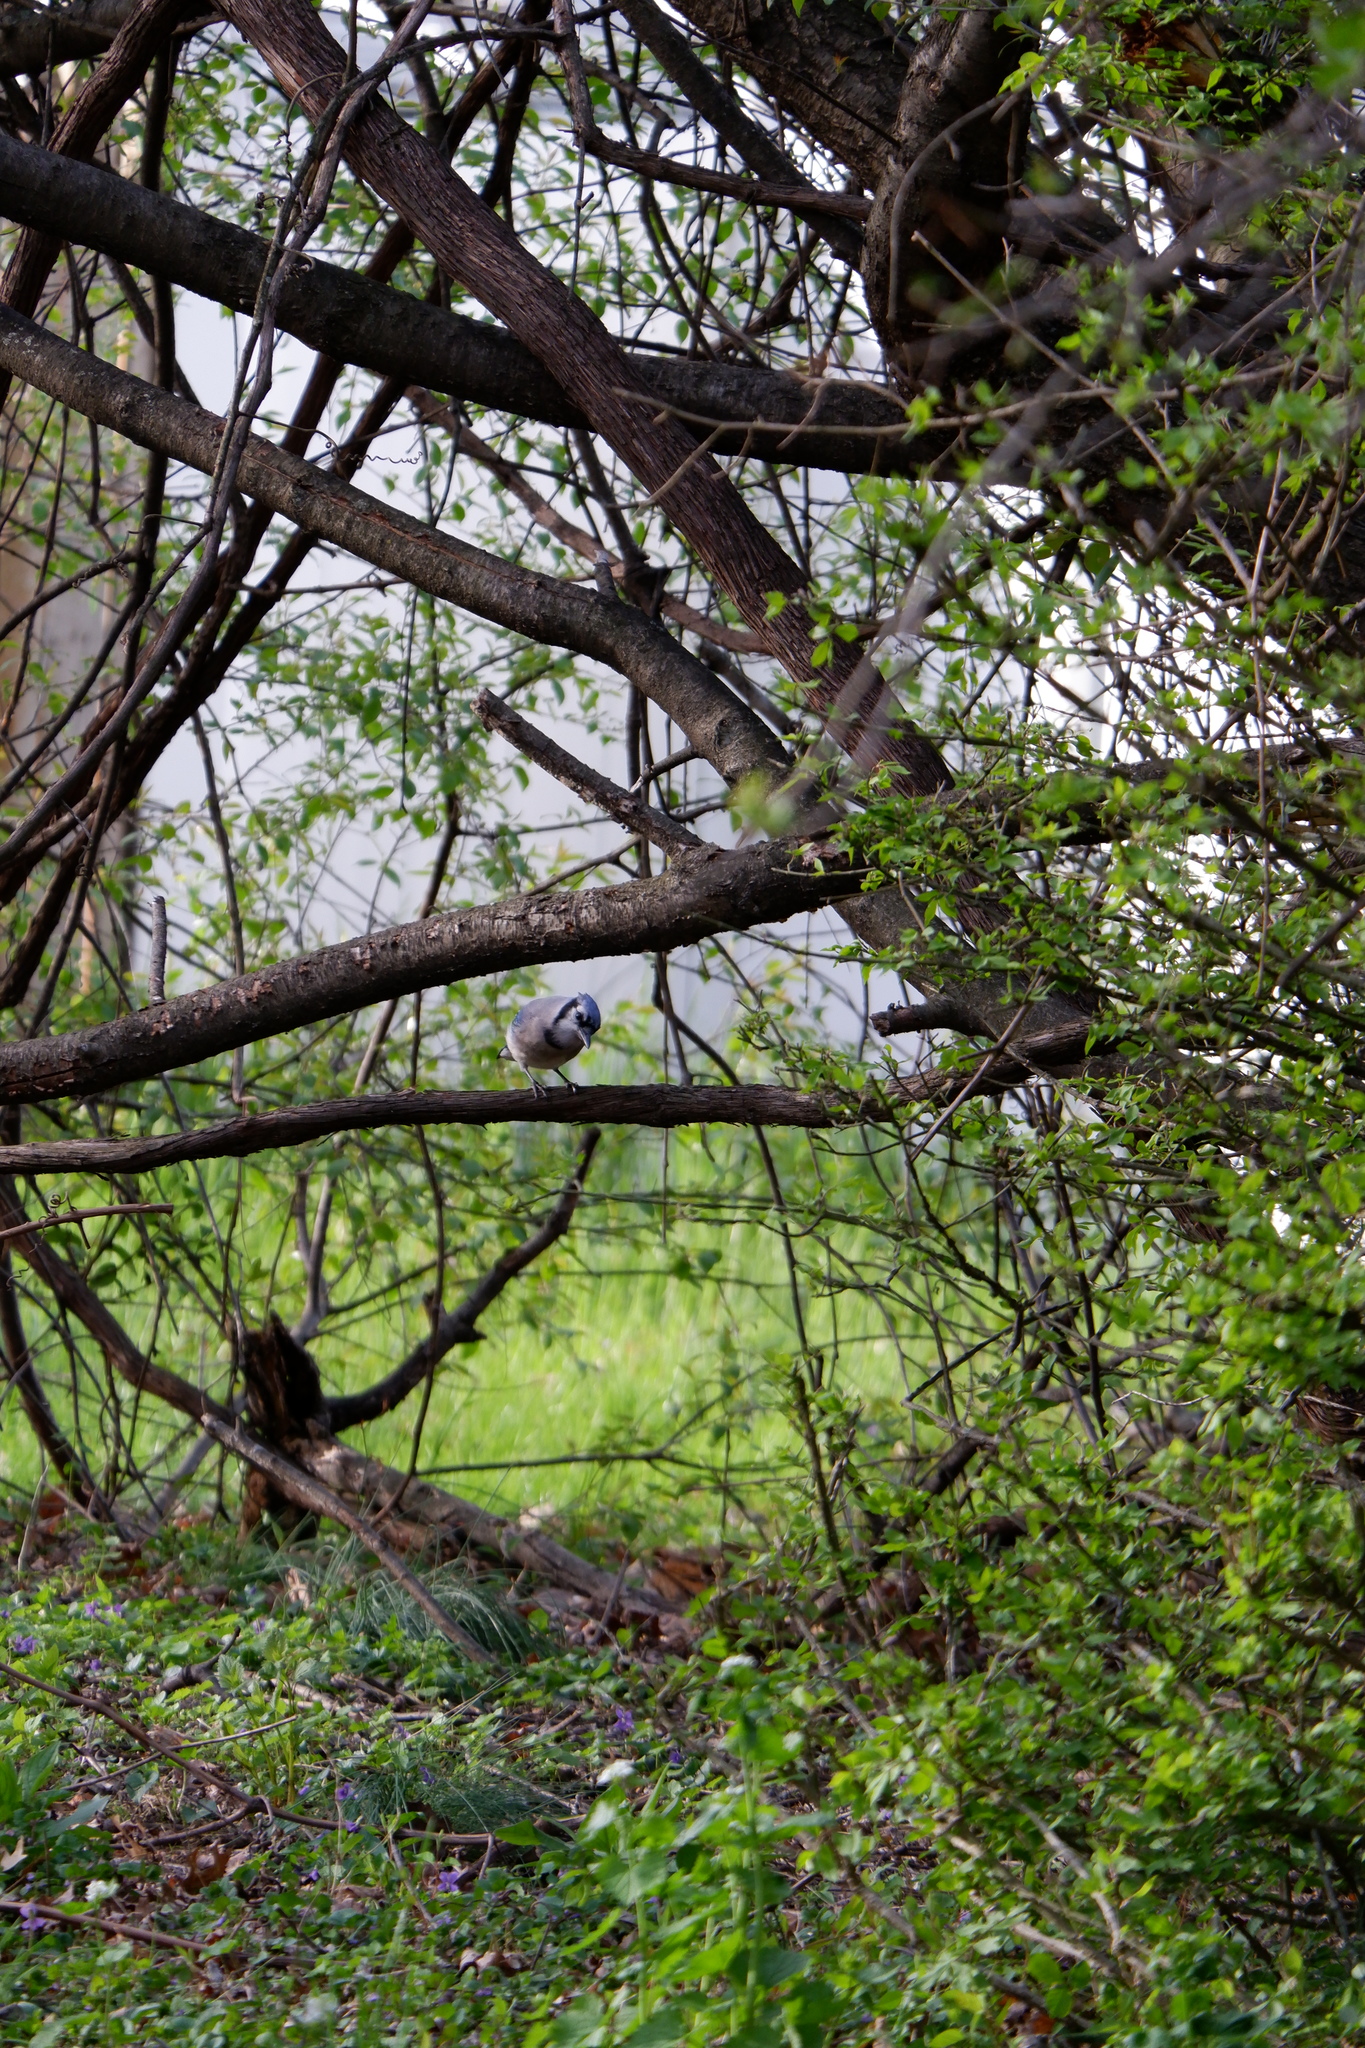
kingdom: Animalia
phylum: Chordata
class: Aves
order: Passeriformes
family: Corvidae
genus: Cyanocitta
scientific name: Cyanocitta cristata
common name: Blue jay
